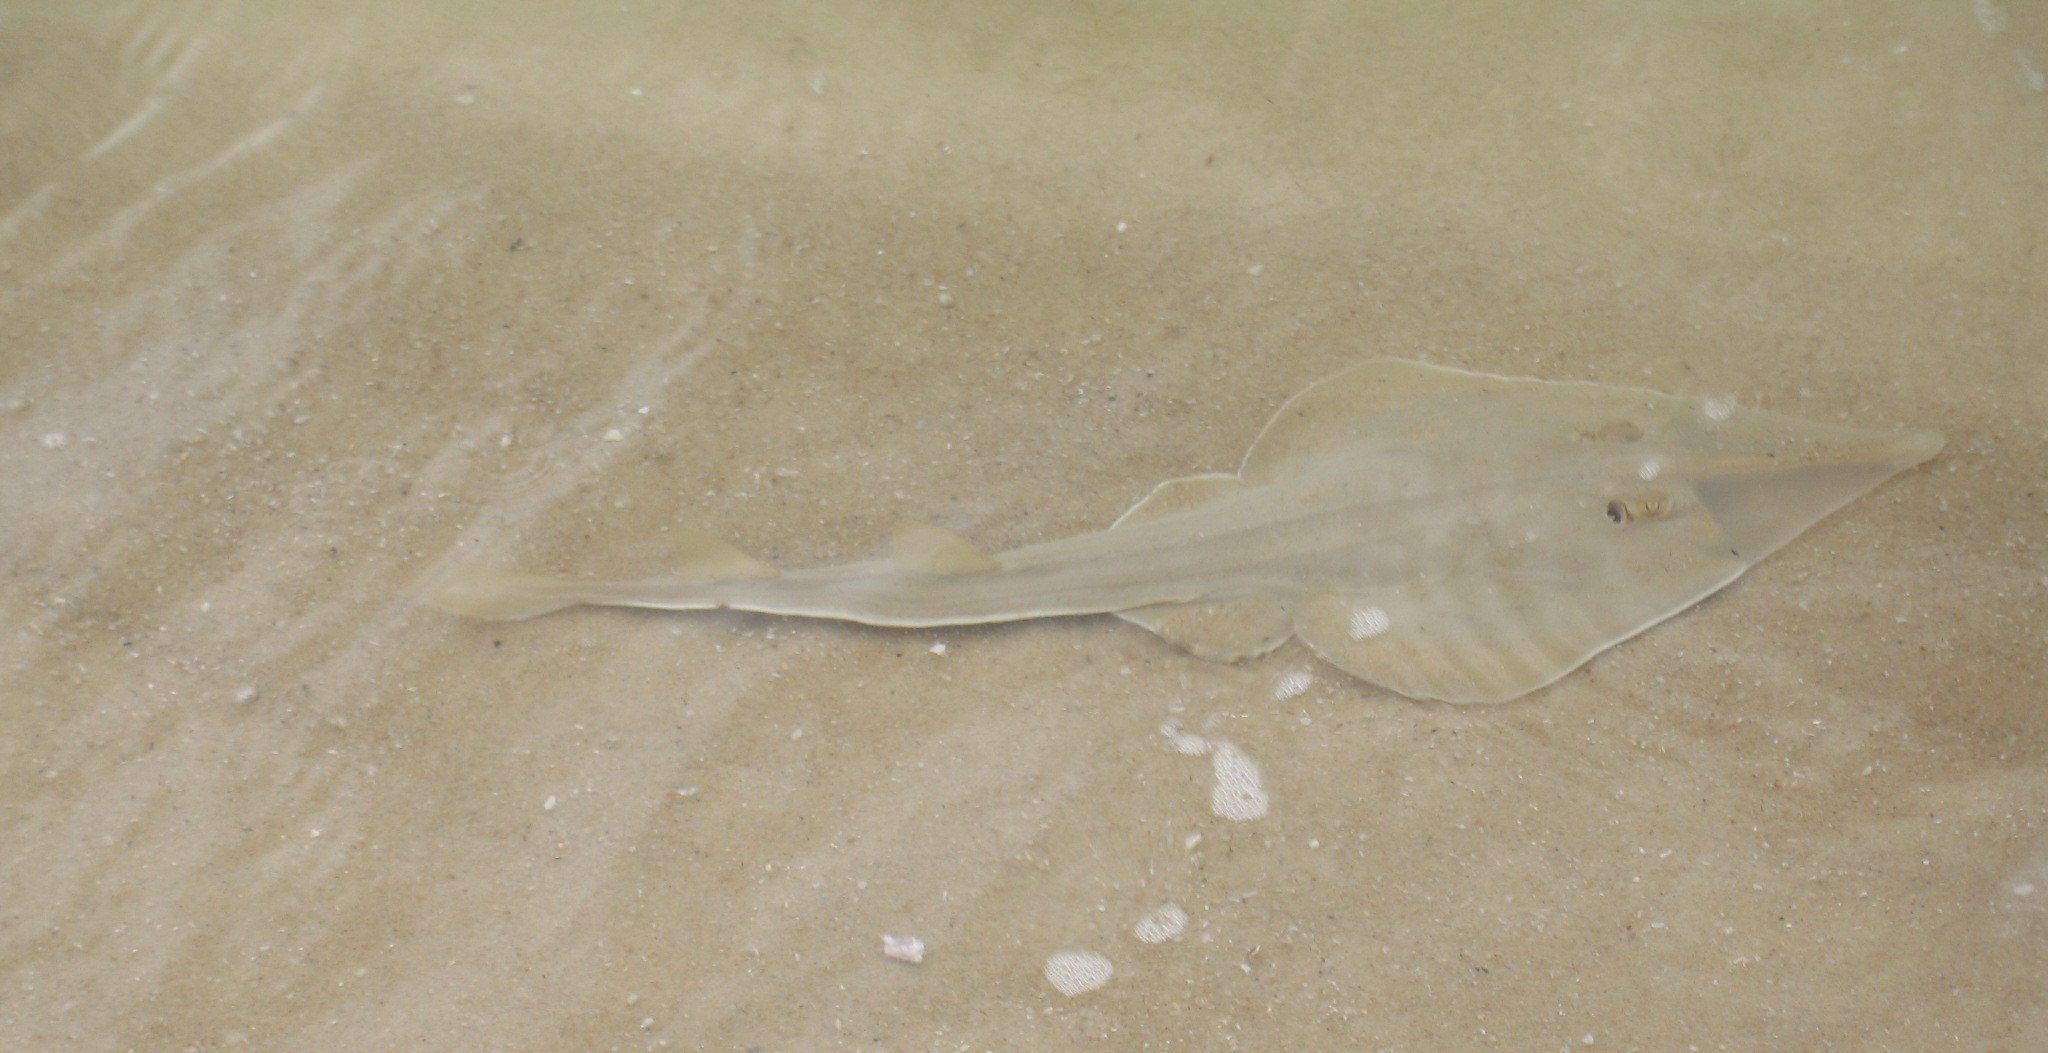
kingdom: Animalia
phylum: Chordata
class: Elasmobranchii
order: Rhinopristiformes
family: Glaucostegidae
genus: Glaucostegus
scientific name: Glaucostegus cemiculus
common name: Blackchin guitarfish
